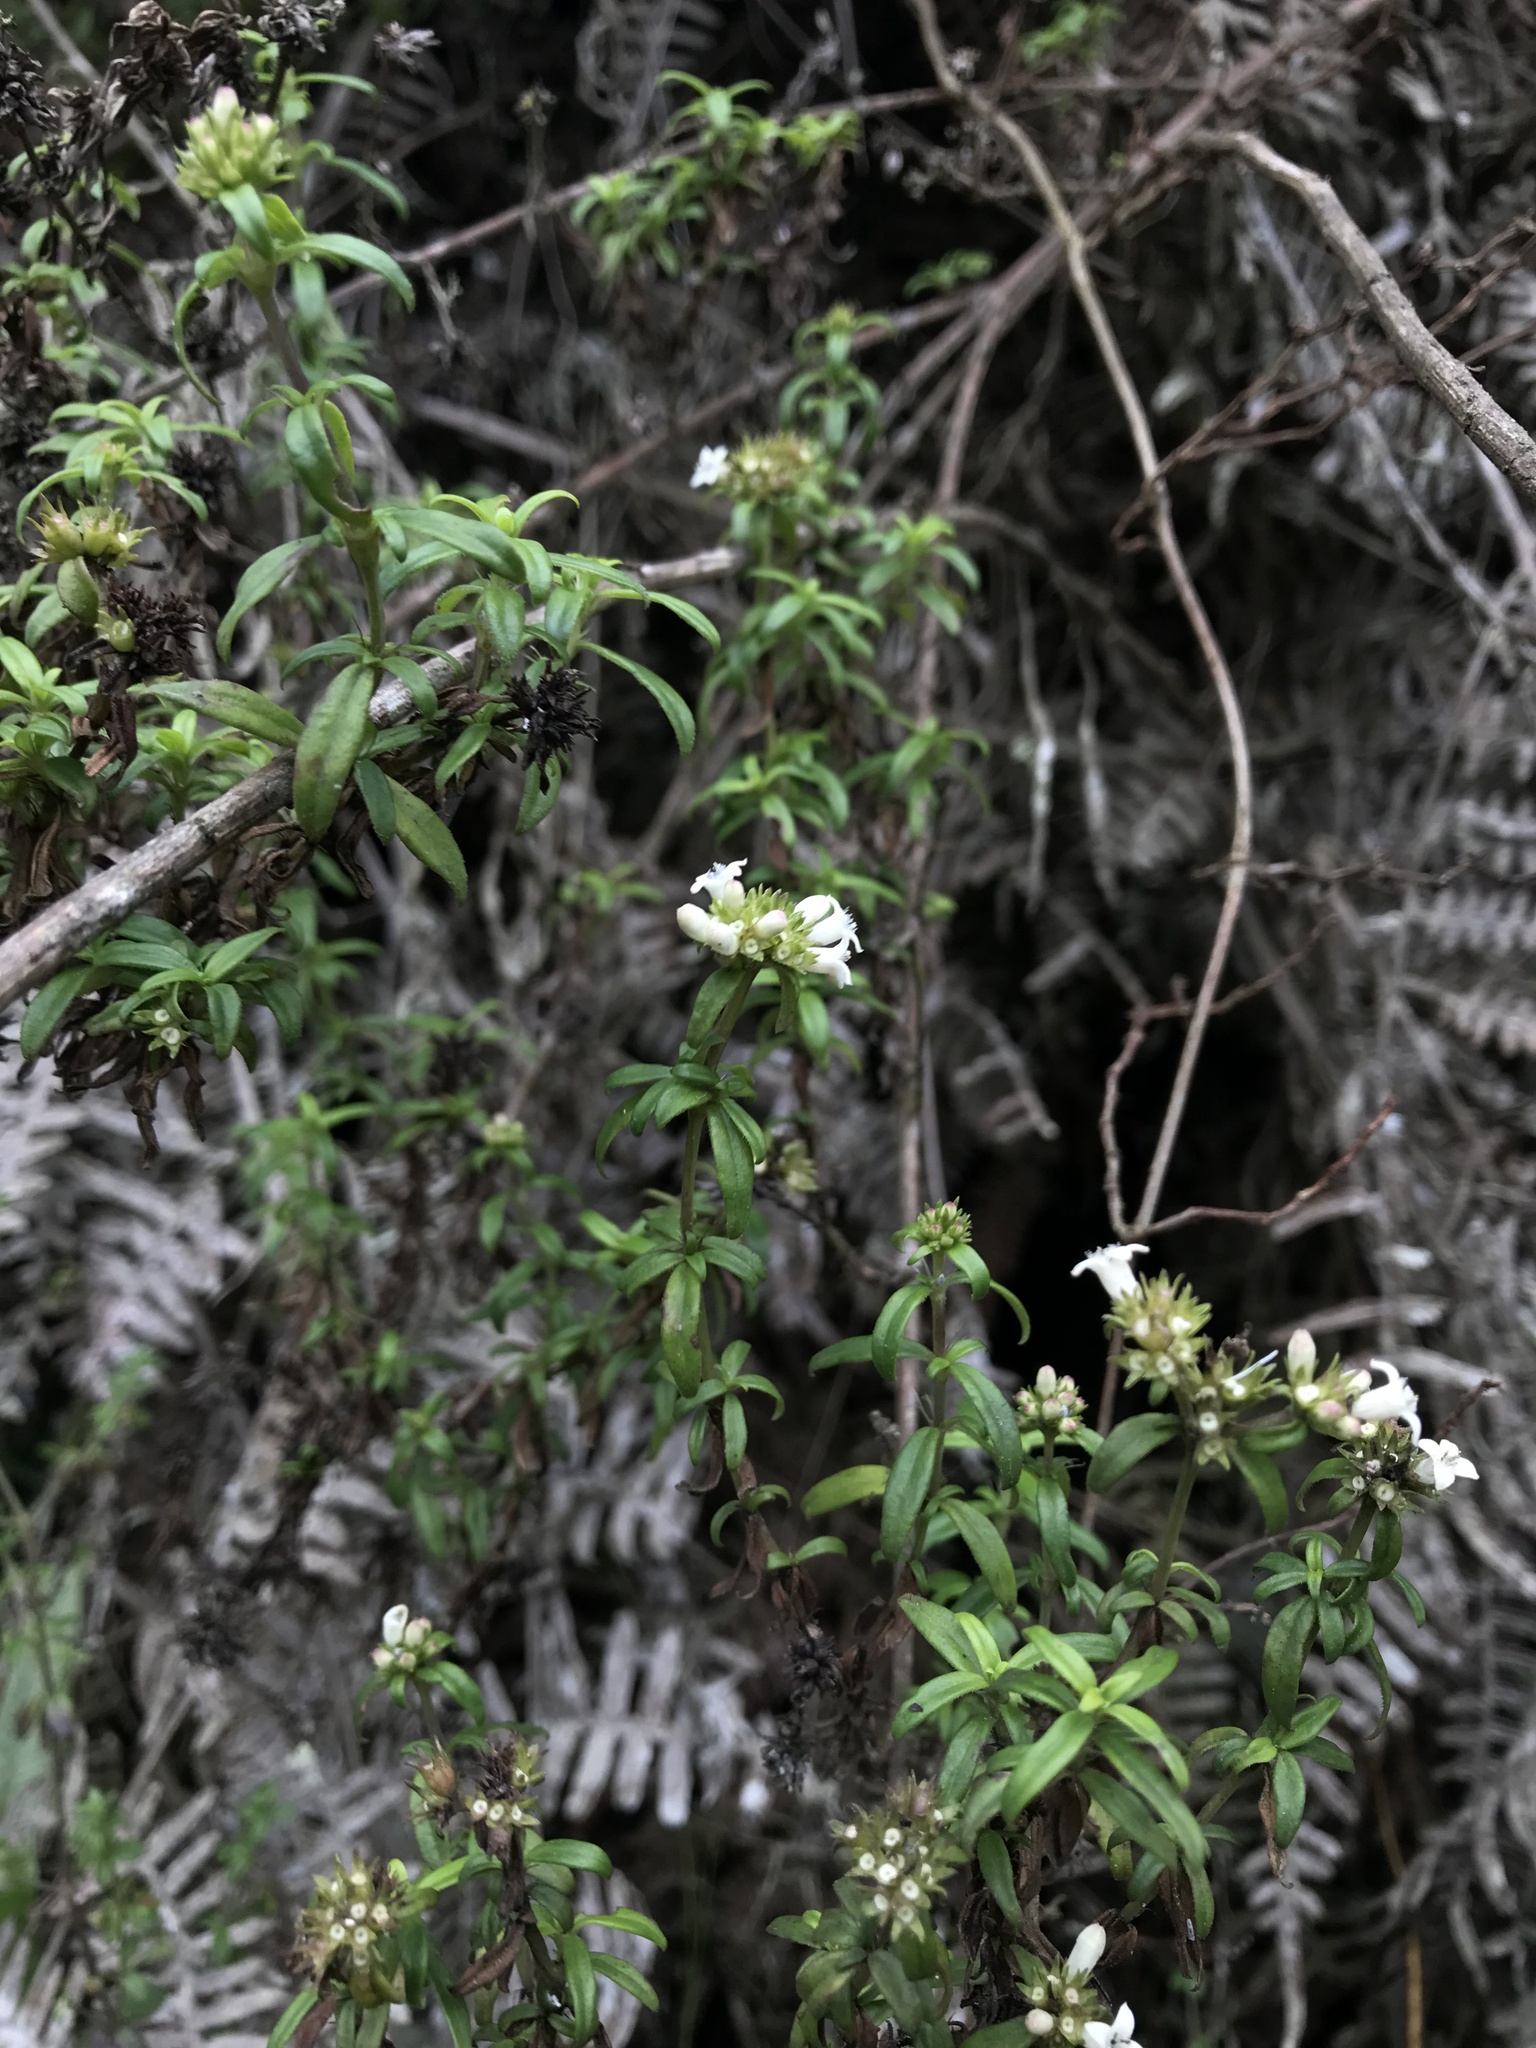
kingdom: Plantae
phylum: Tracheophyta
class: Magnoliopsida
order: Gentianales
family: Rubiaceae
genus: Galianthe
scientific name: Galianthe bogotensis
